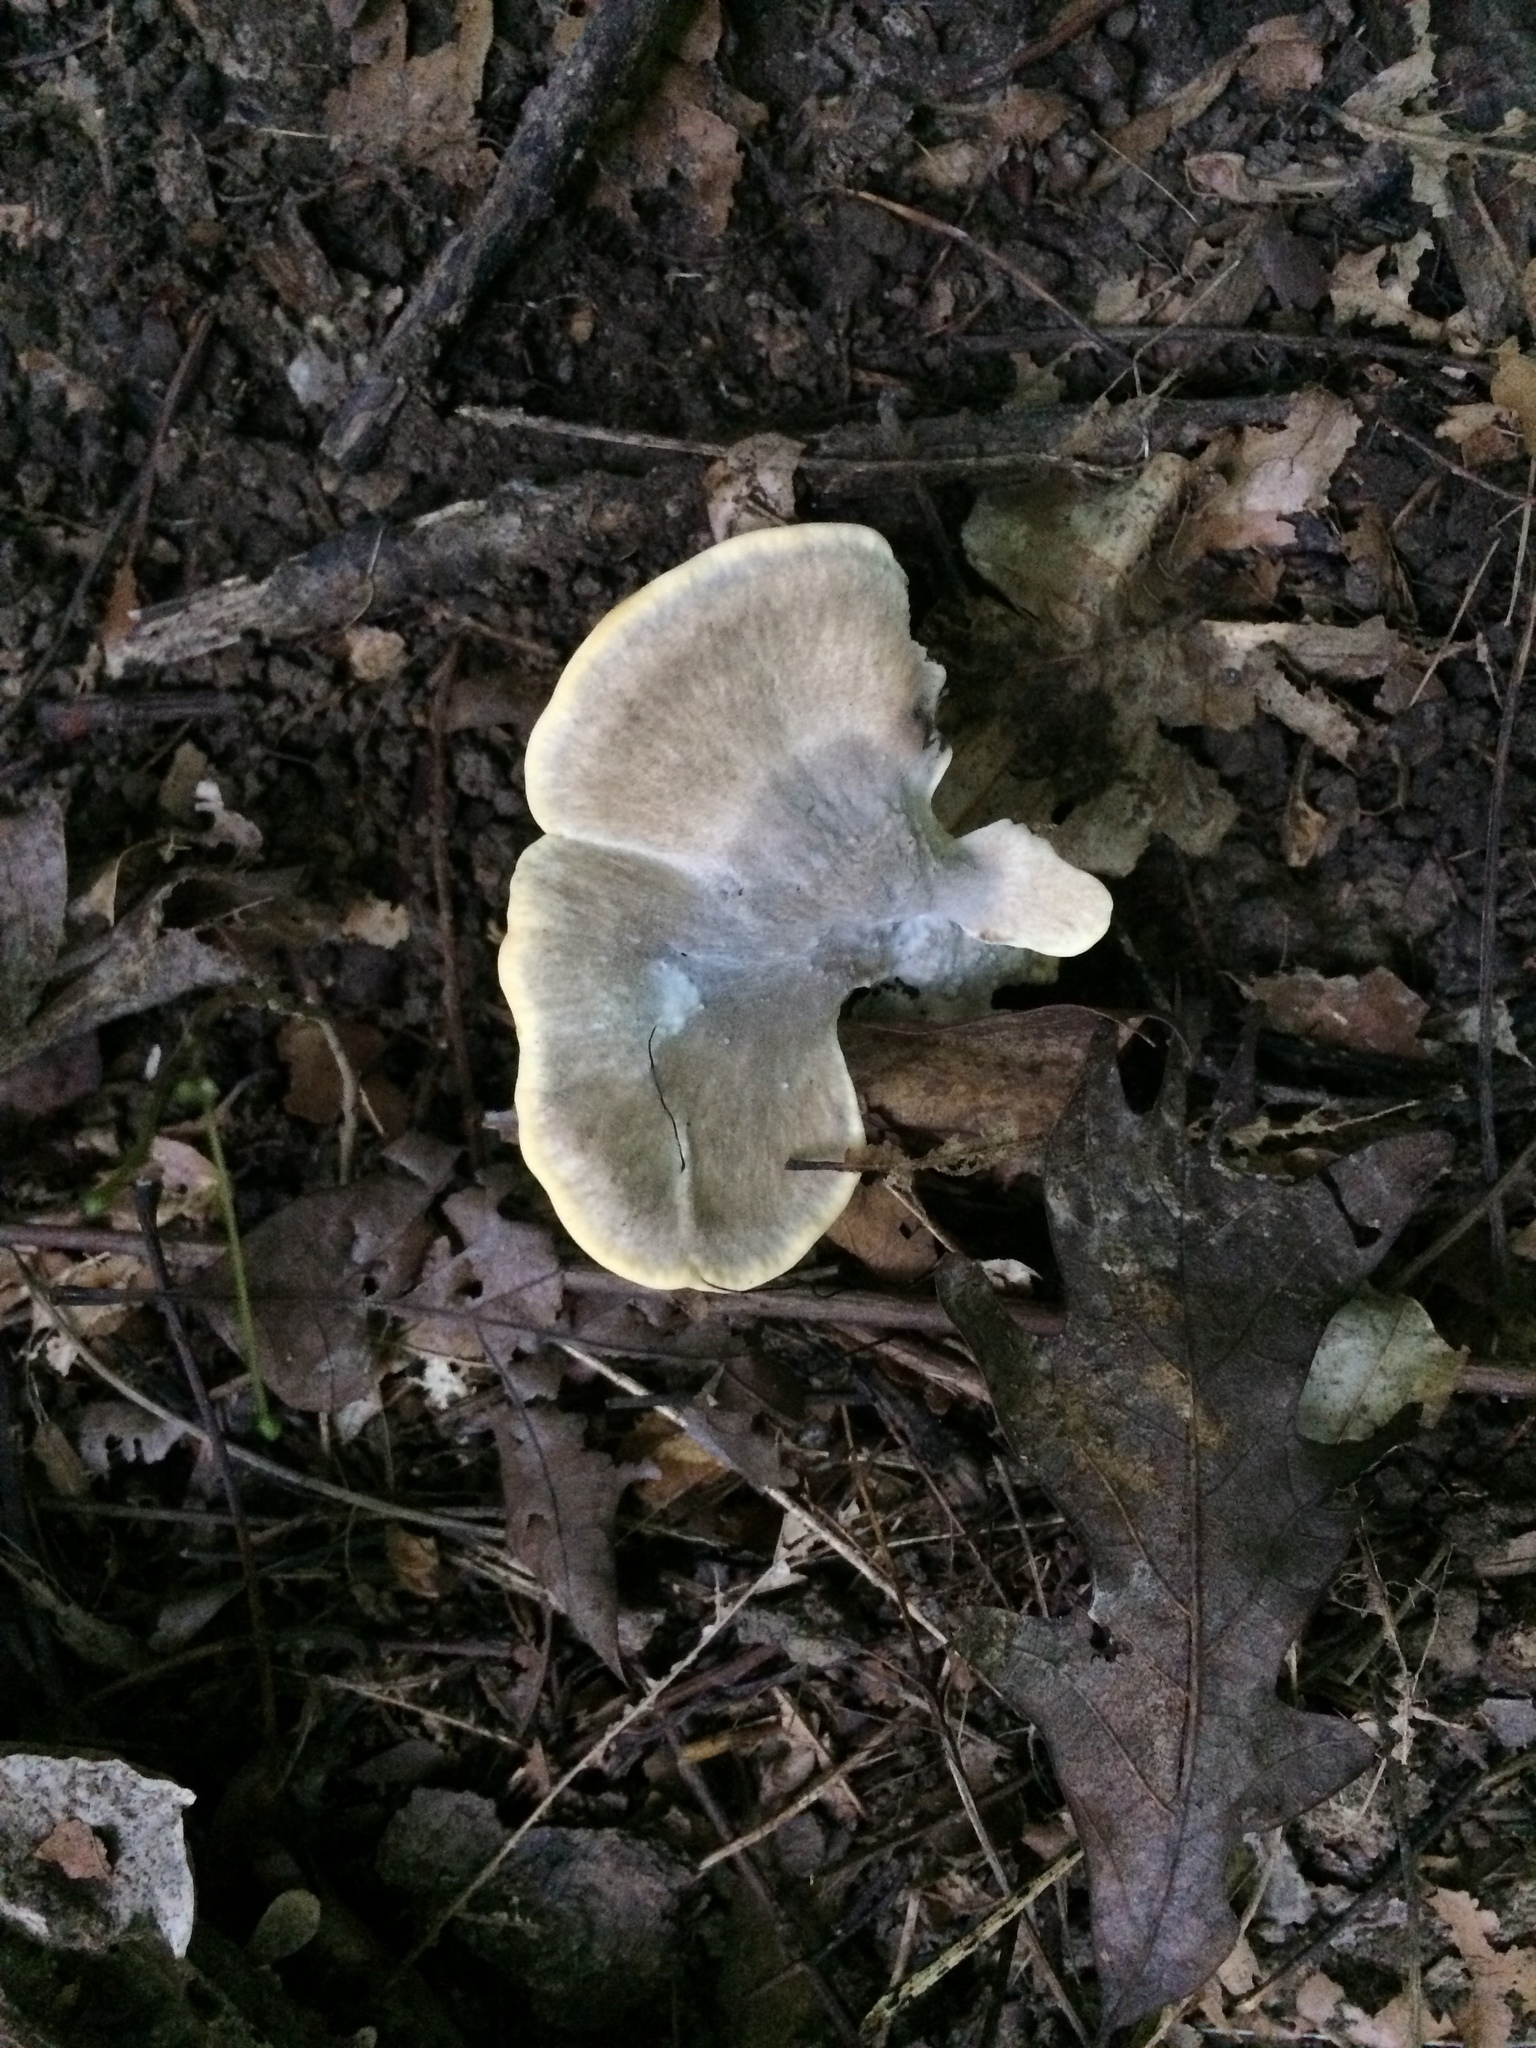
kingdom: Fungi
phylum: Basidiomycota
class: Agaricomycetes
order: Polyporales
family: Meripilaceae
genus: Meripilus
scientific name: Meripilus sumstinei
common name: Black-staining polypore
